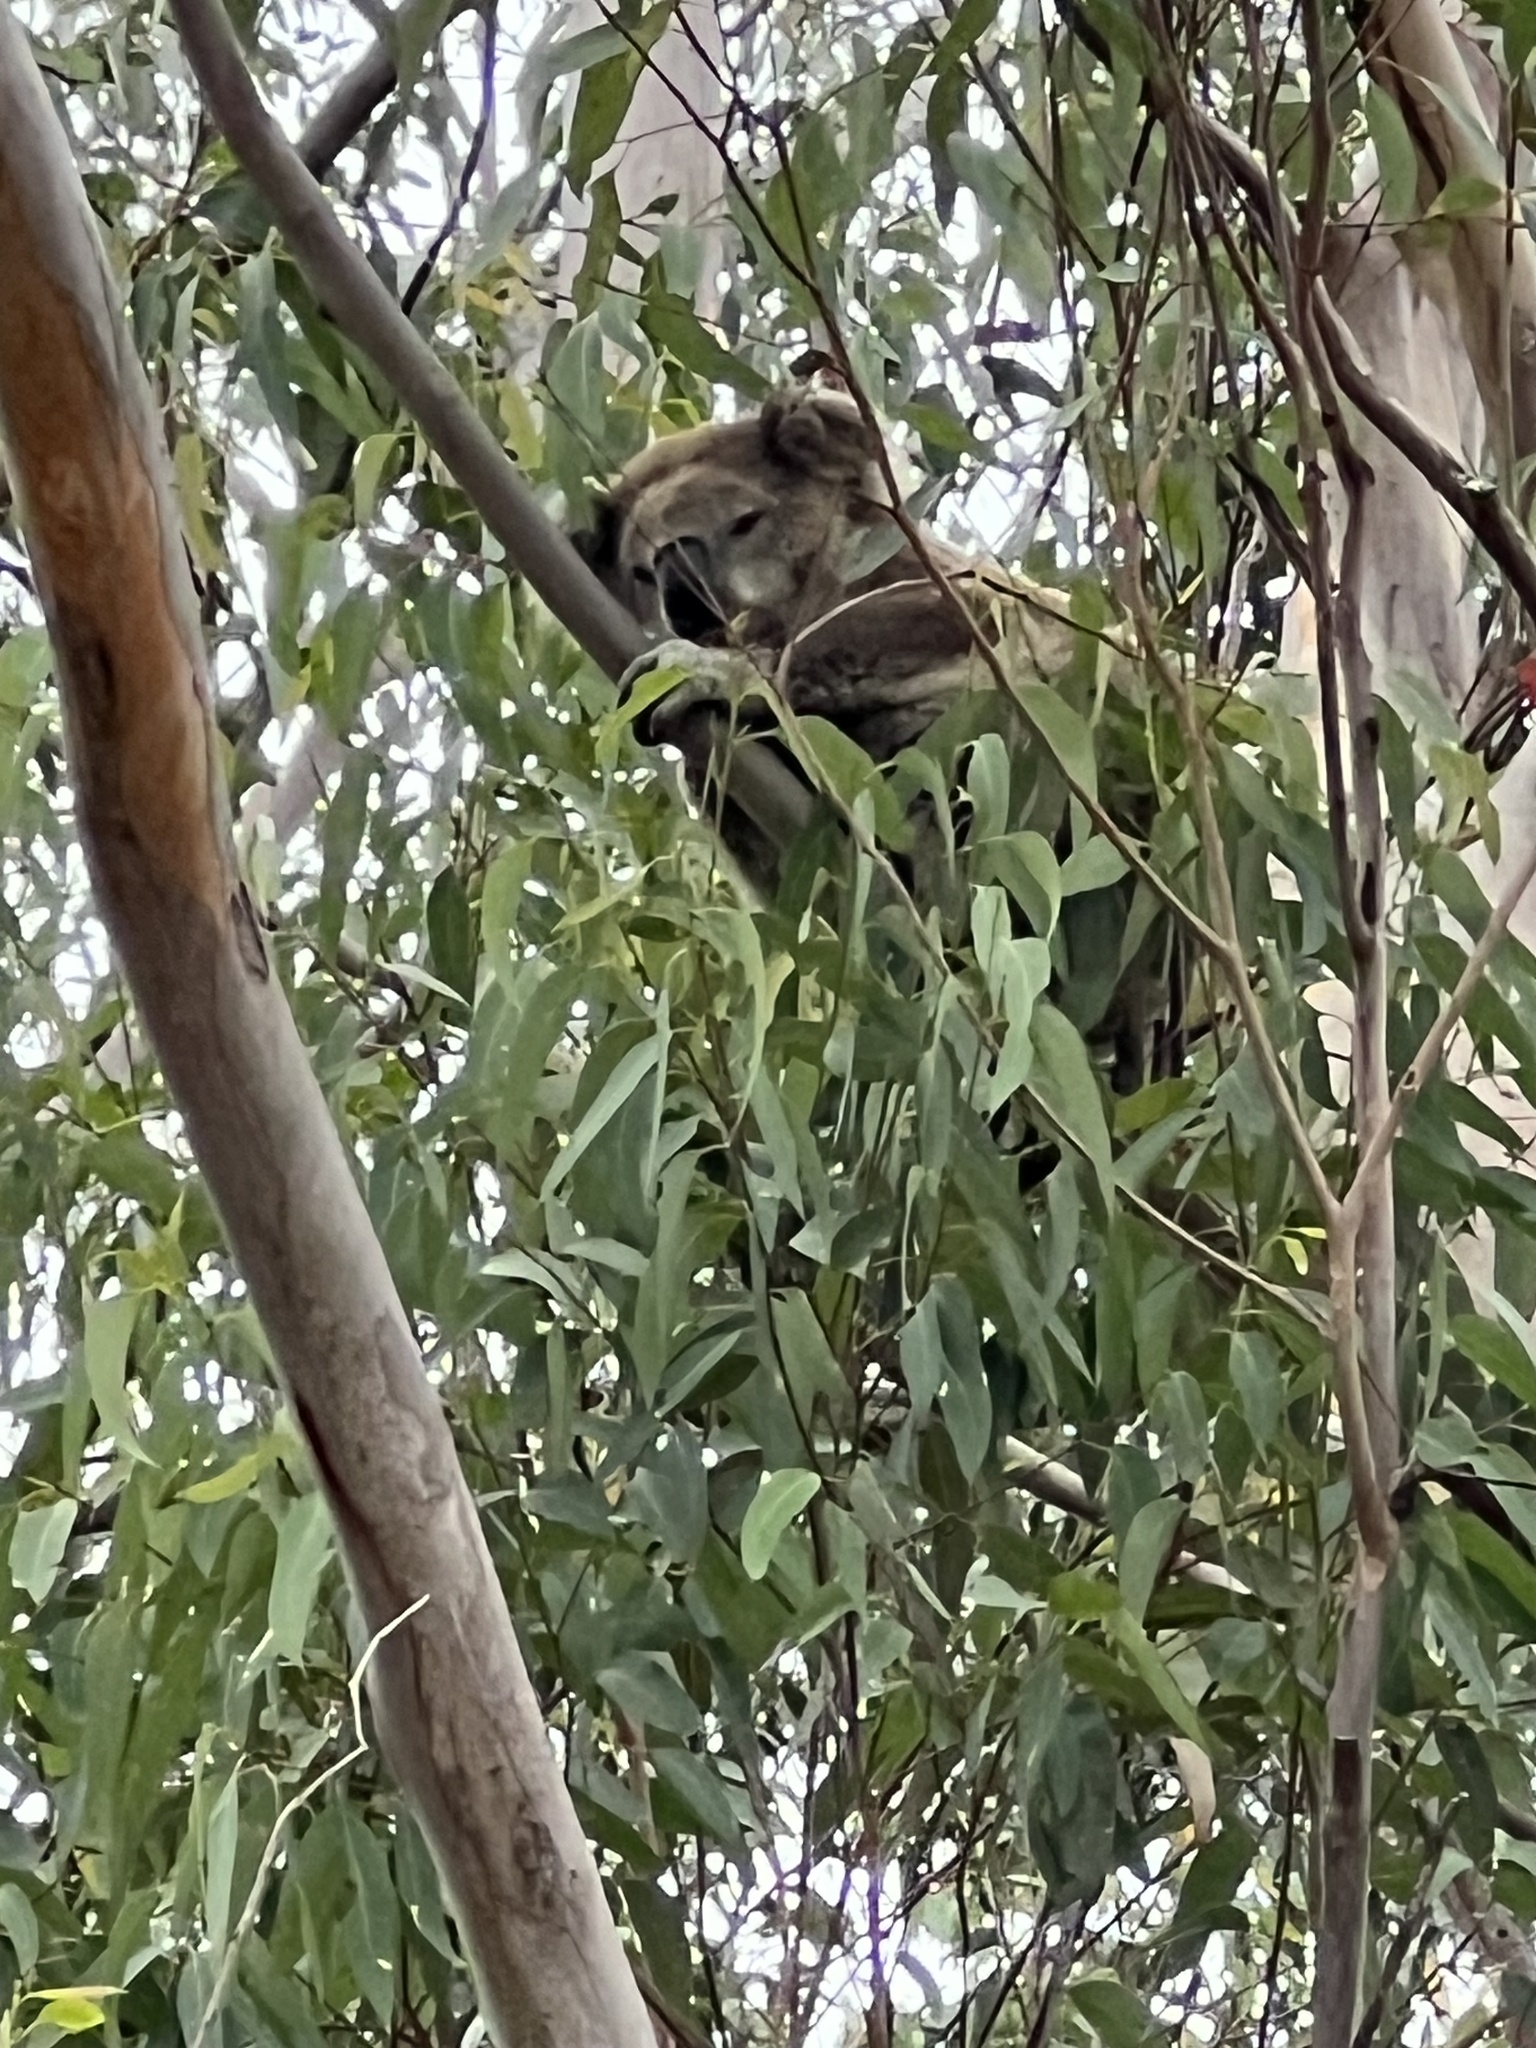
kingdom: Animalia
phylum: Chordata
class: Mammalia
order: Diprotodontia
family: Phascolarctidae
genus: Phascolarctos
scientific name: Phascolarctos cinereus
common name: Koala
